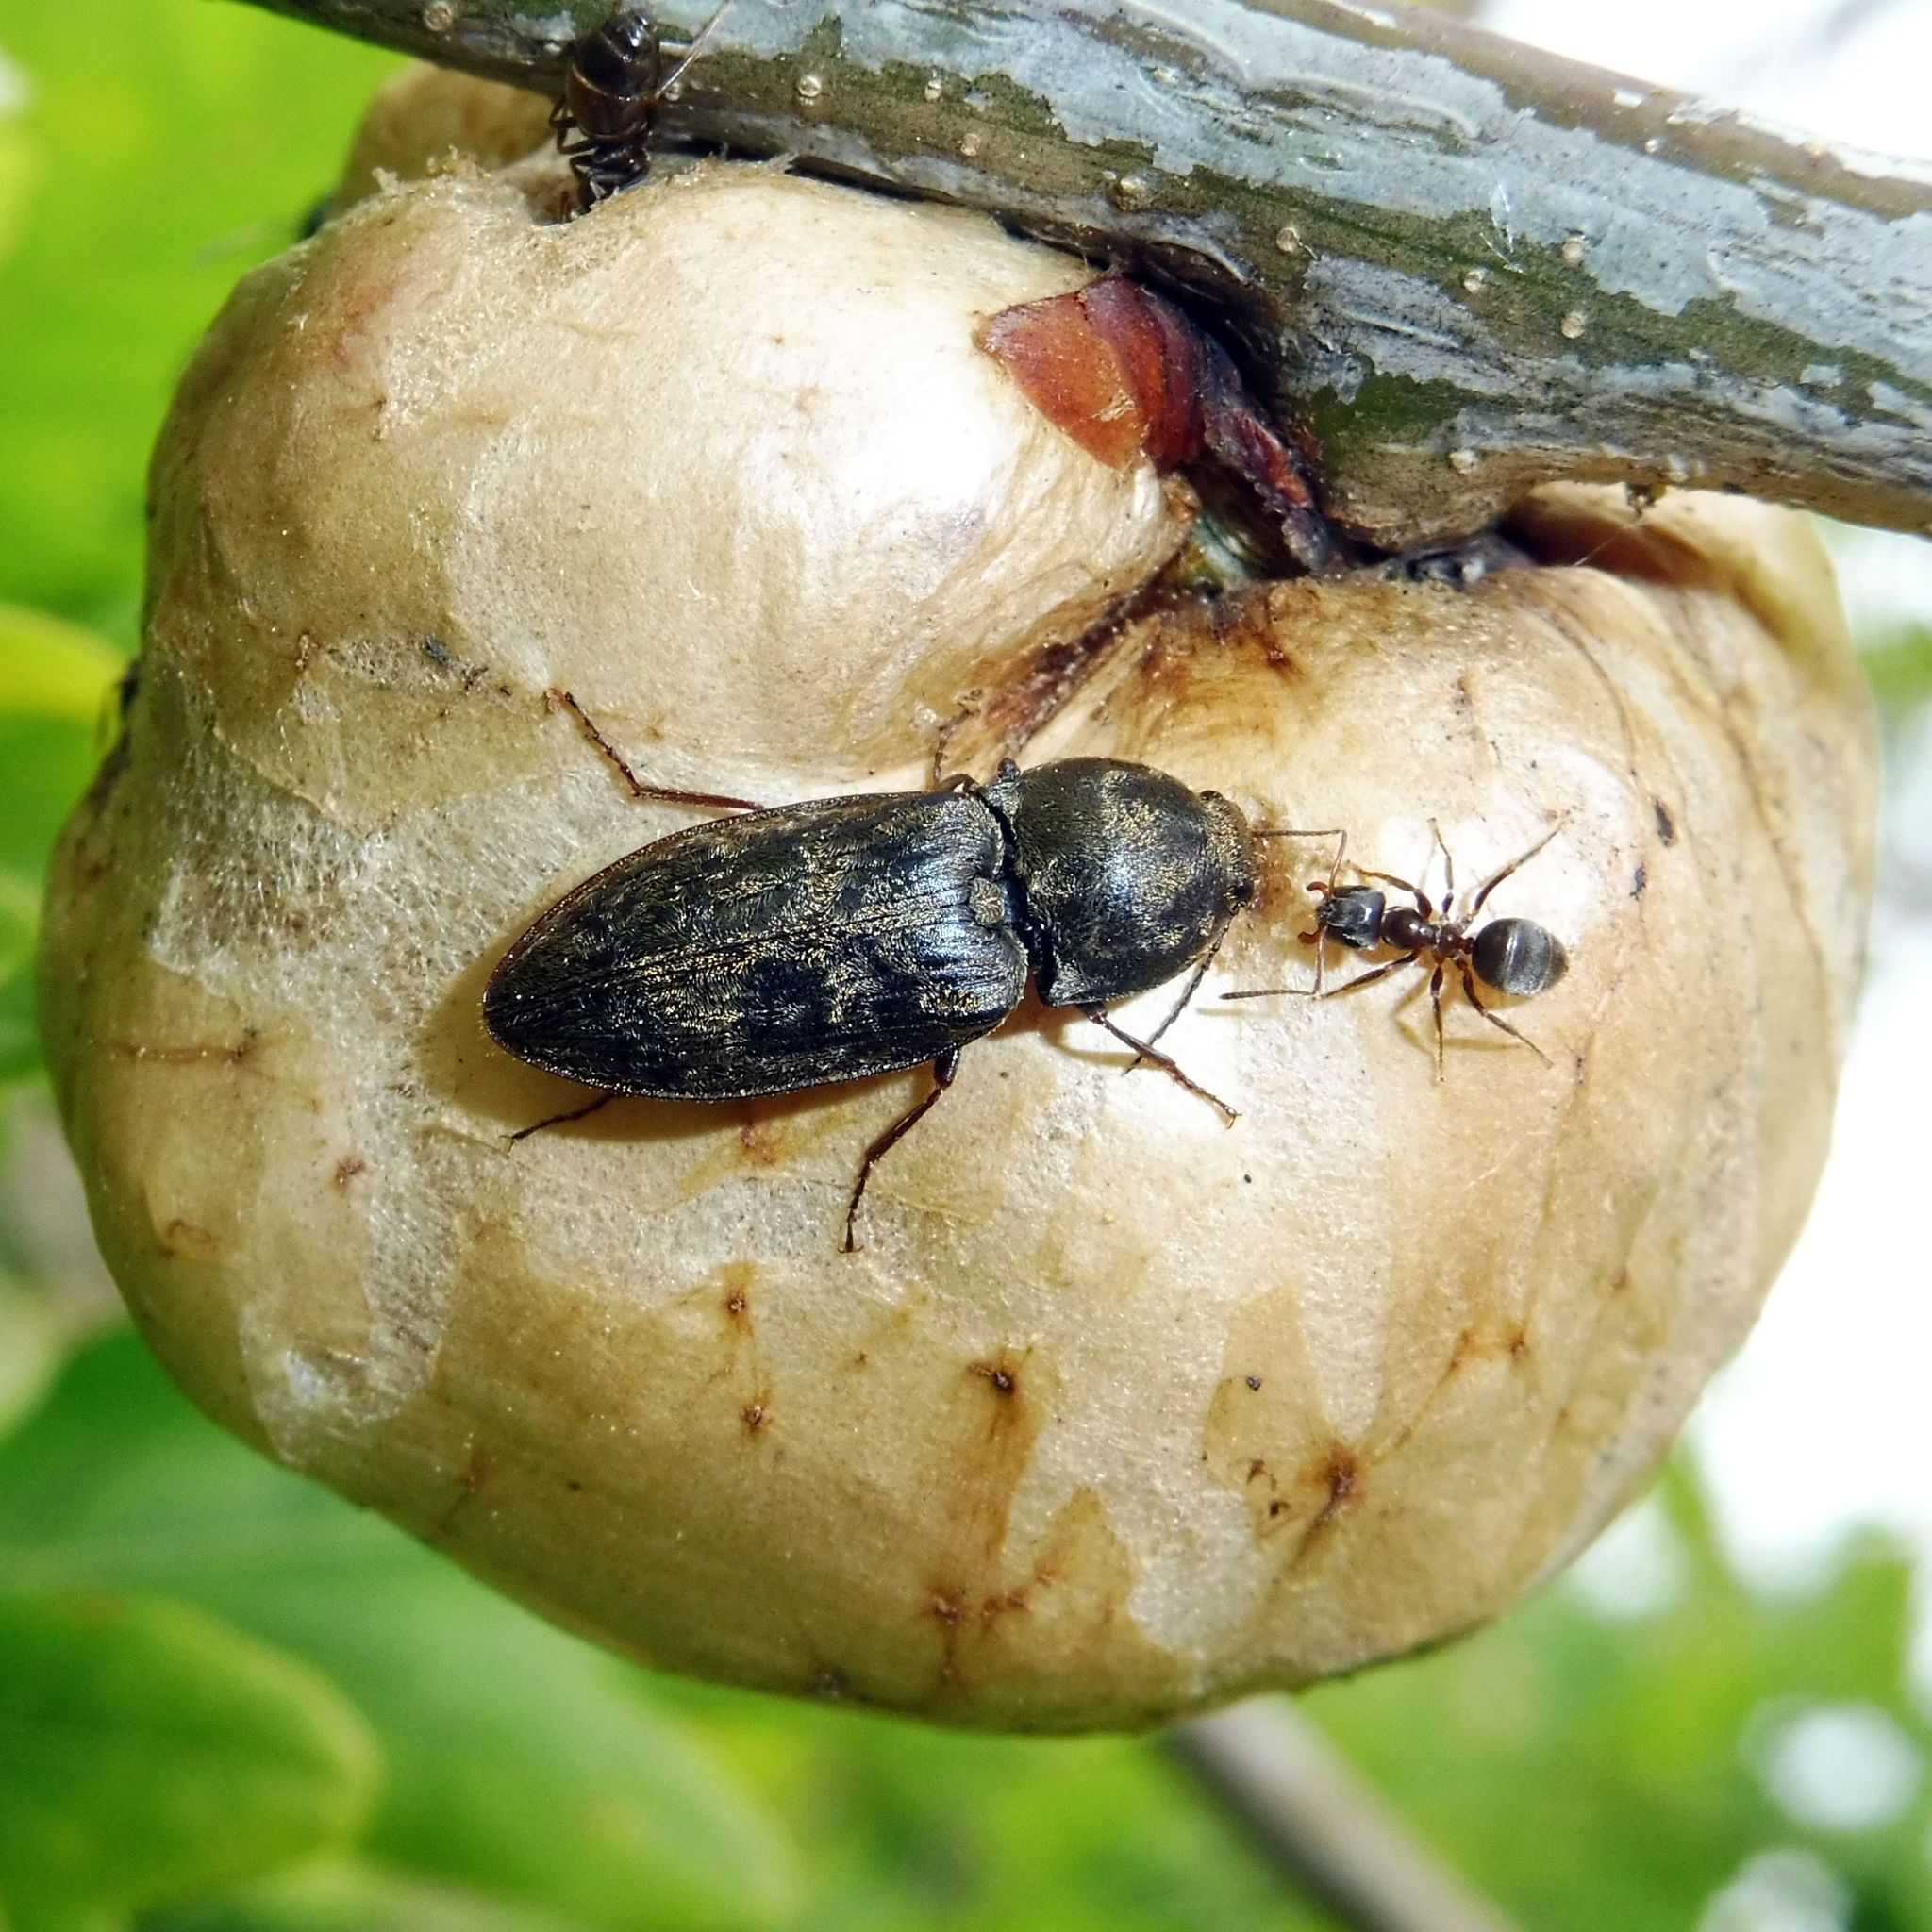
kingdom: Animalia
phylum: Arthropoda
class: Insecta
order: Coleoptera
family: Elateridae
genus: Prosternon
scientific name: Prosternon tessellatum
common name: Chequered click beetle
